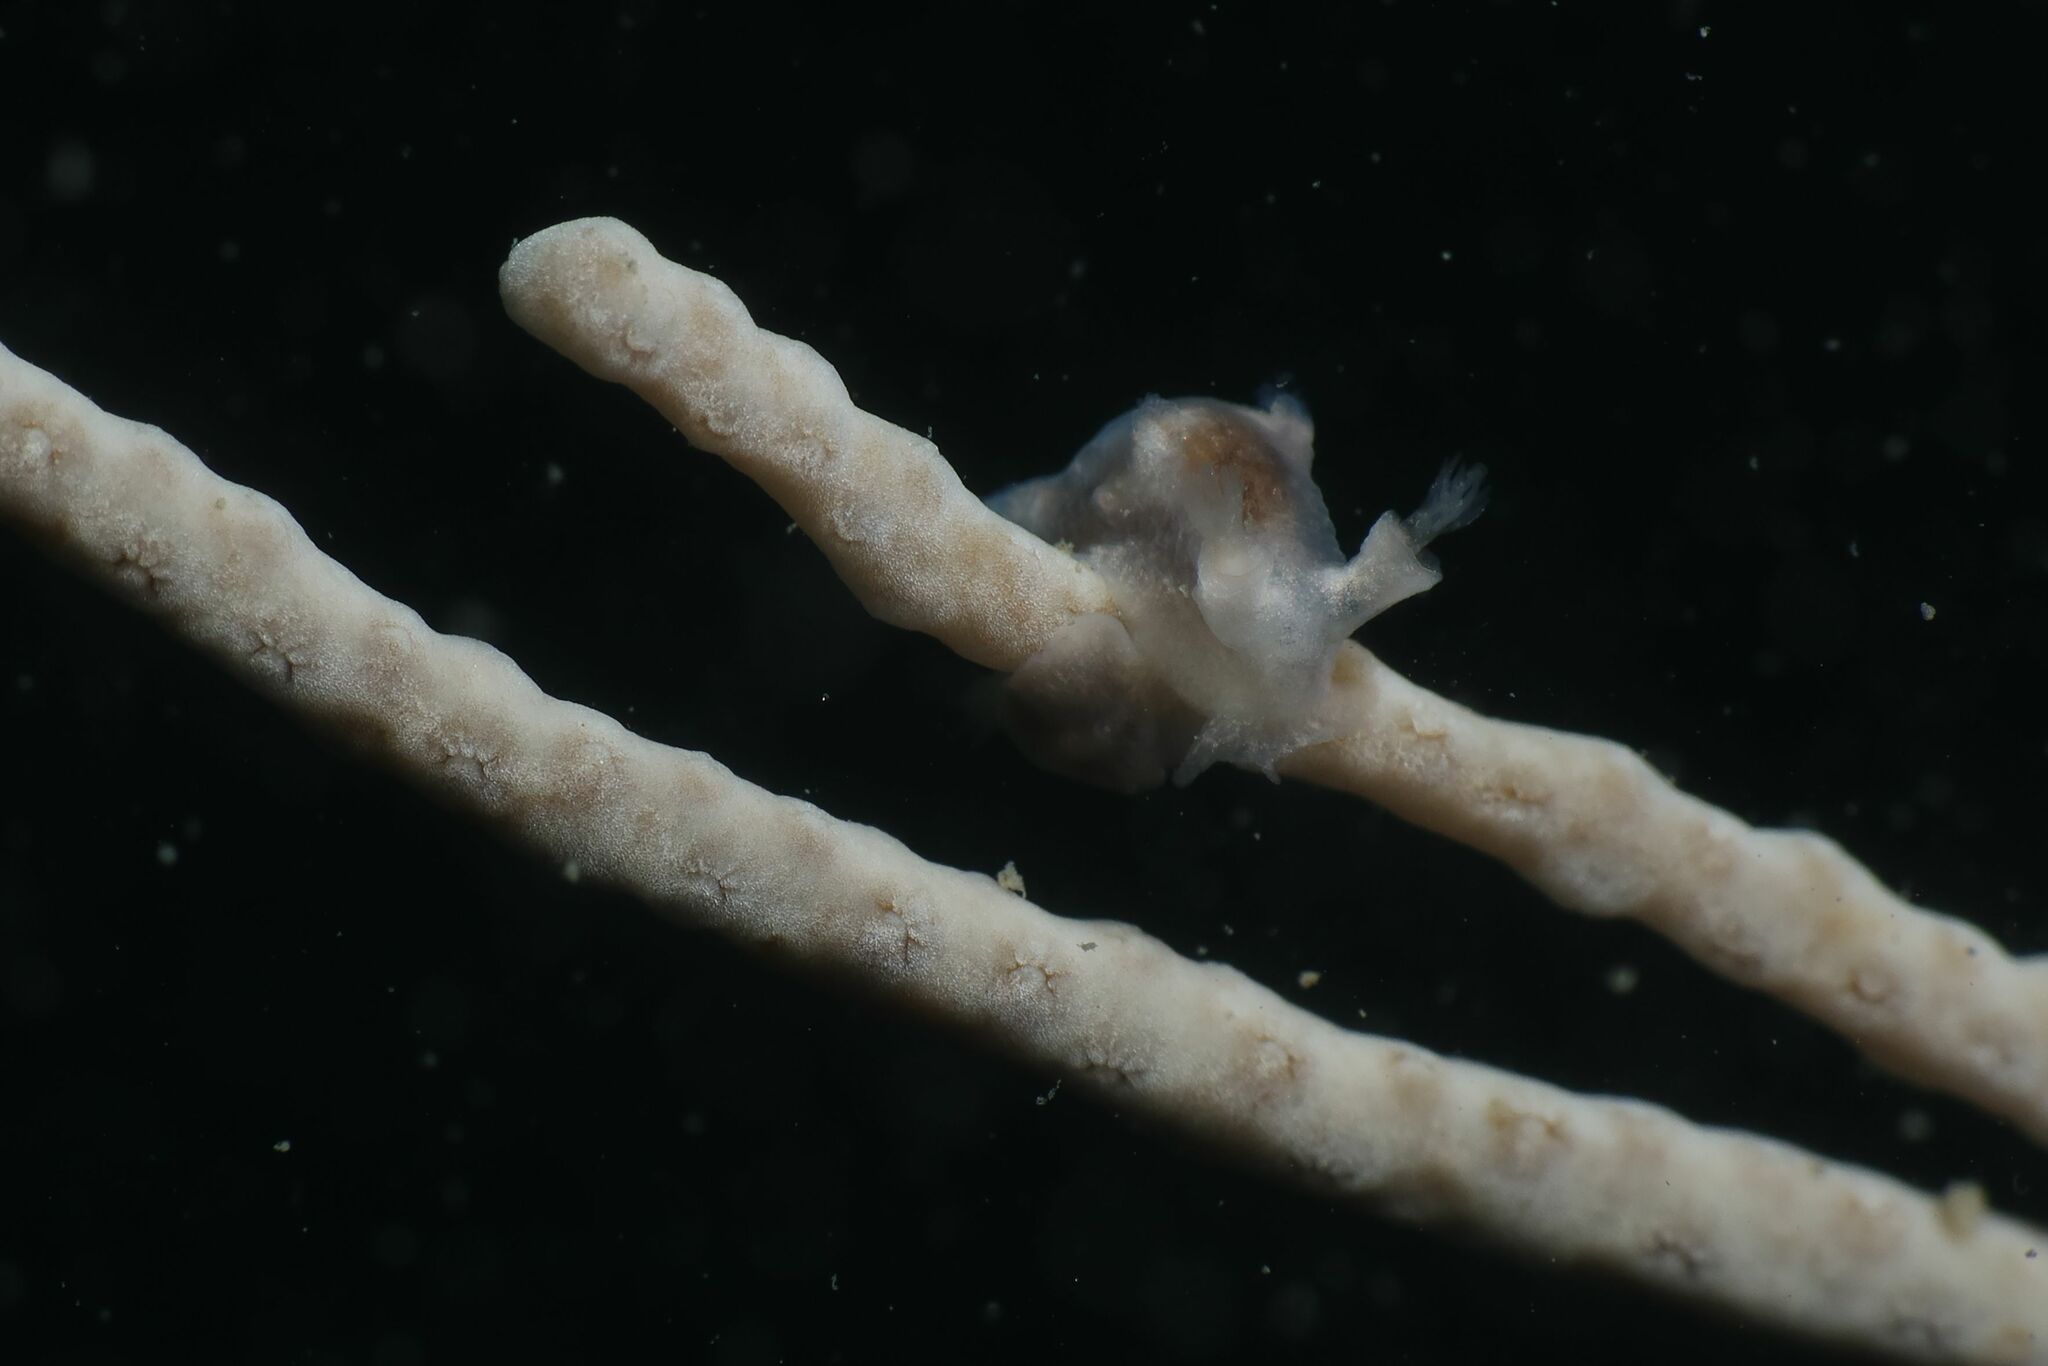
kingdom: Animalia
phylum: Mollusca
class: Gastropoda
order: Nudibranchia
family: Tritoniidae
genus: Duvaucelia
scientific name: Duvaucelia odhneri
